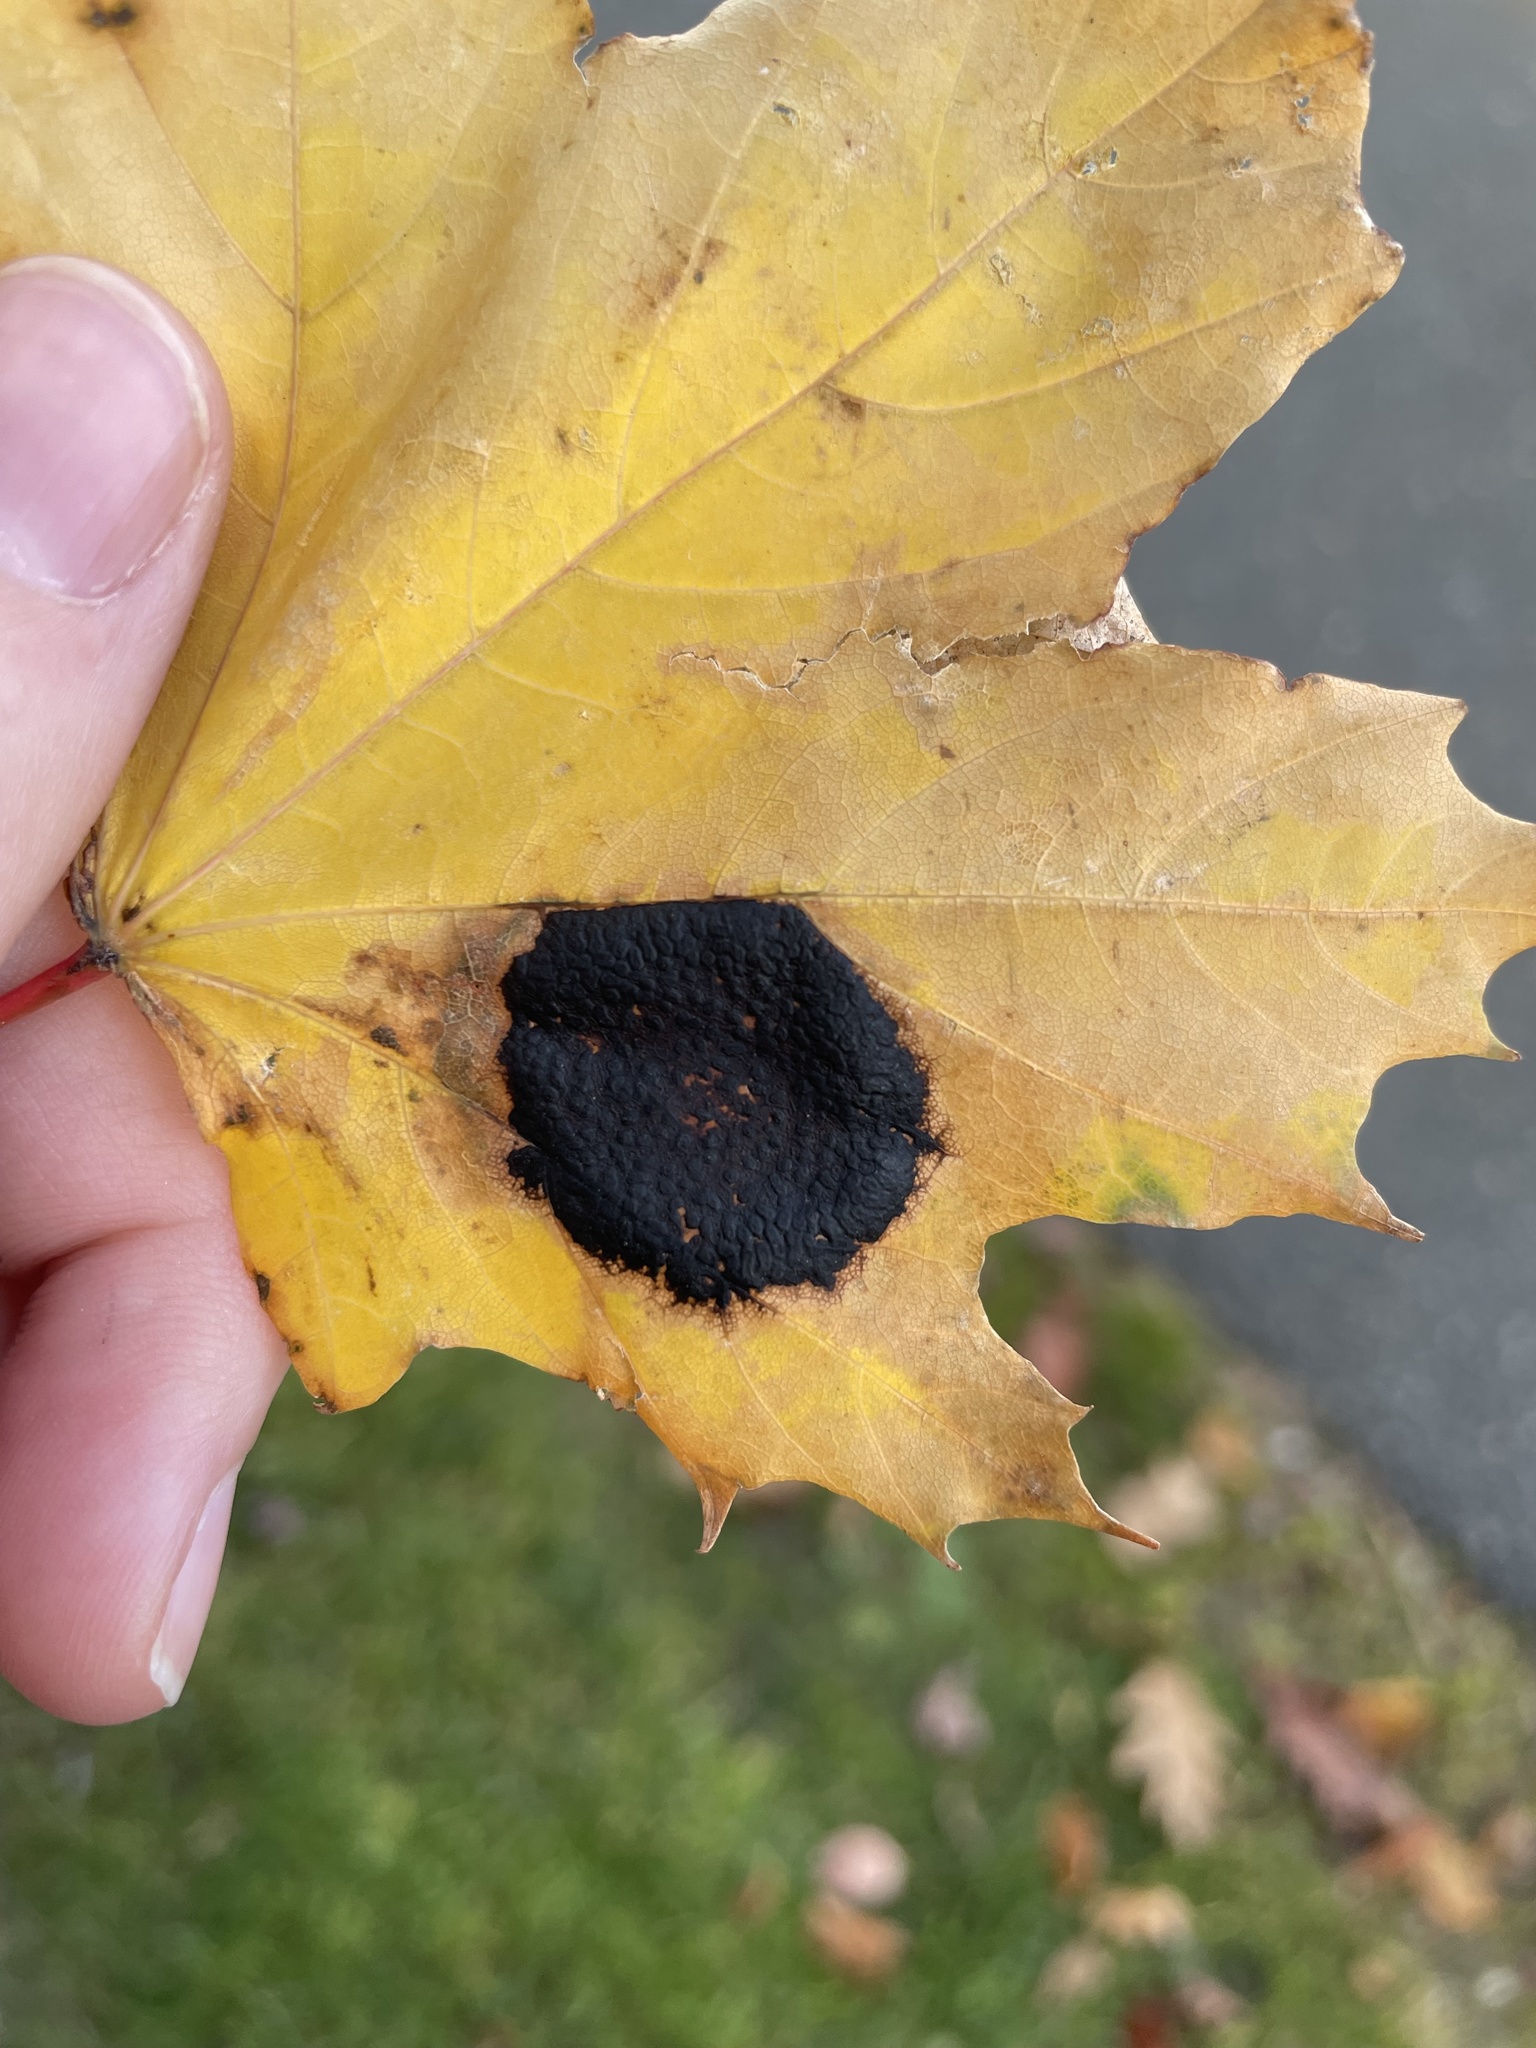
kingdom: Fungi
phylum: Ascomycota
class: Leotiomycetes
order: Rhytismatales
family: Rhytismataceae
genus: Rhytisma
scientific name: Rhytisma acerinum
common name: European tar spot
